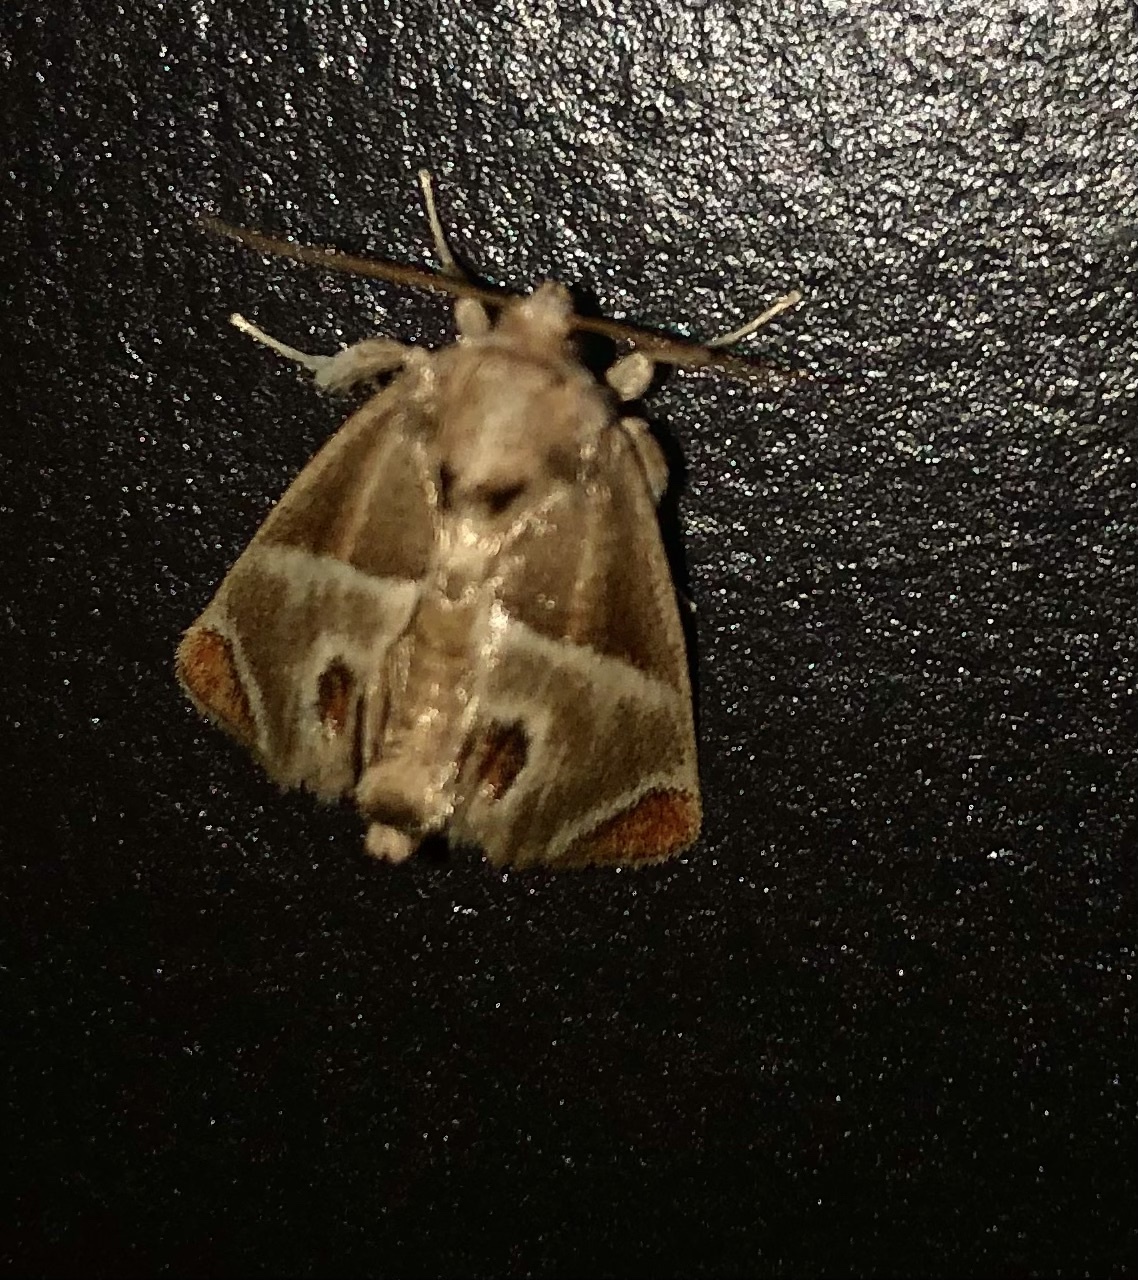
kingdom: Animalia
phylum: Arthropoda
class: Insecta
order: Lepidoptera
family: Limacodidae
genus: Apoda
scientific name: Apoda biguttata
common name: Shagreened slug moth
